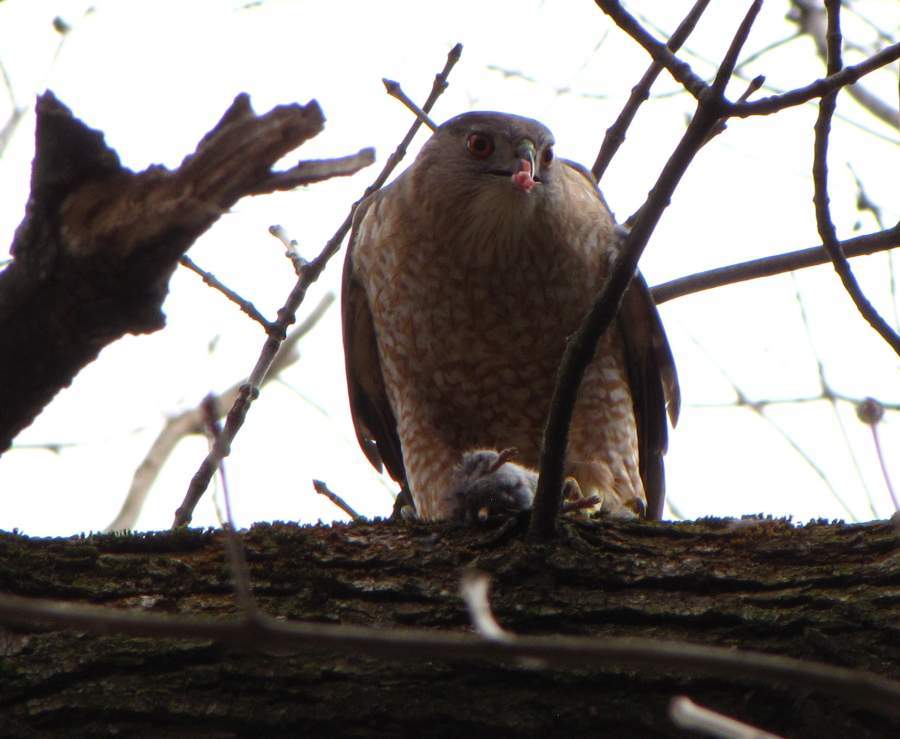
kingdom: Animalia
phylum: Chordata
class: Aves
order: Accipitriformes
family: Accipitridae
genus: Accipiter
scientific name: Accipiter cooperii
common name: Cooper's hawk
